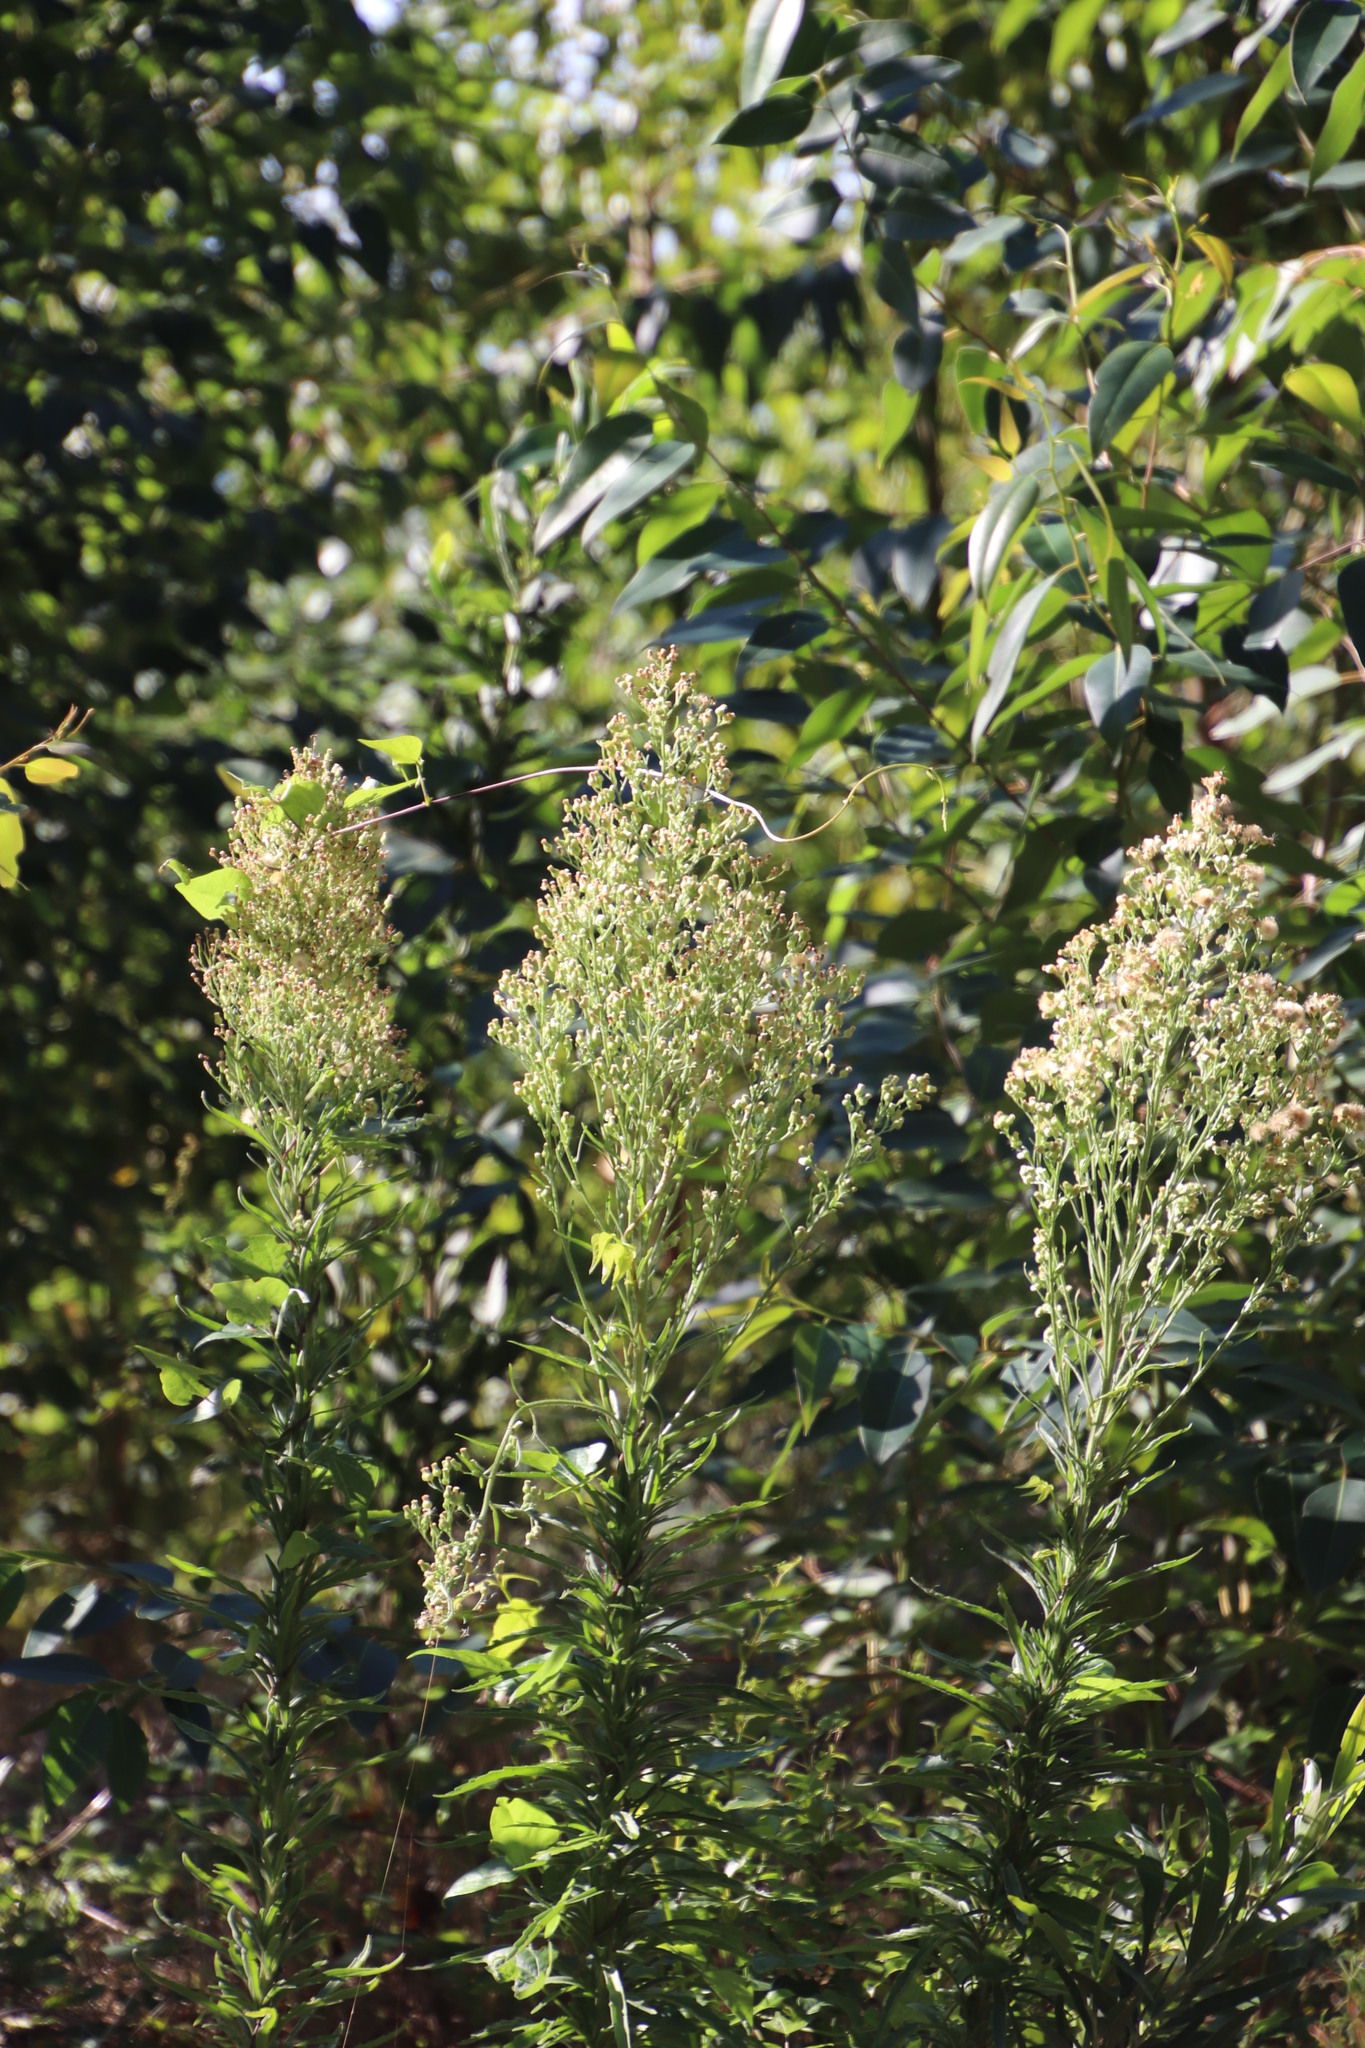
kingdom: Plantae
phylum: Tracheophyta
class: Magnoliopsida
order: Asterales
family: Asteraceae
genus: Erigeron
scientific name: Erigeron sumatrensis
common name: Daisy
